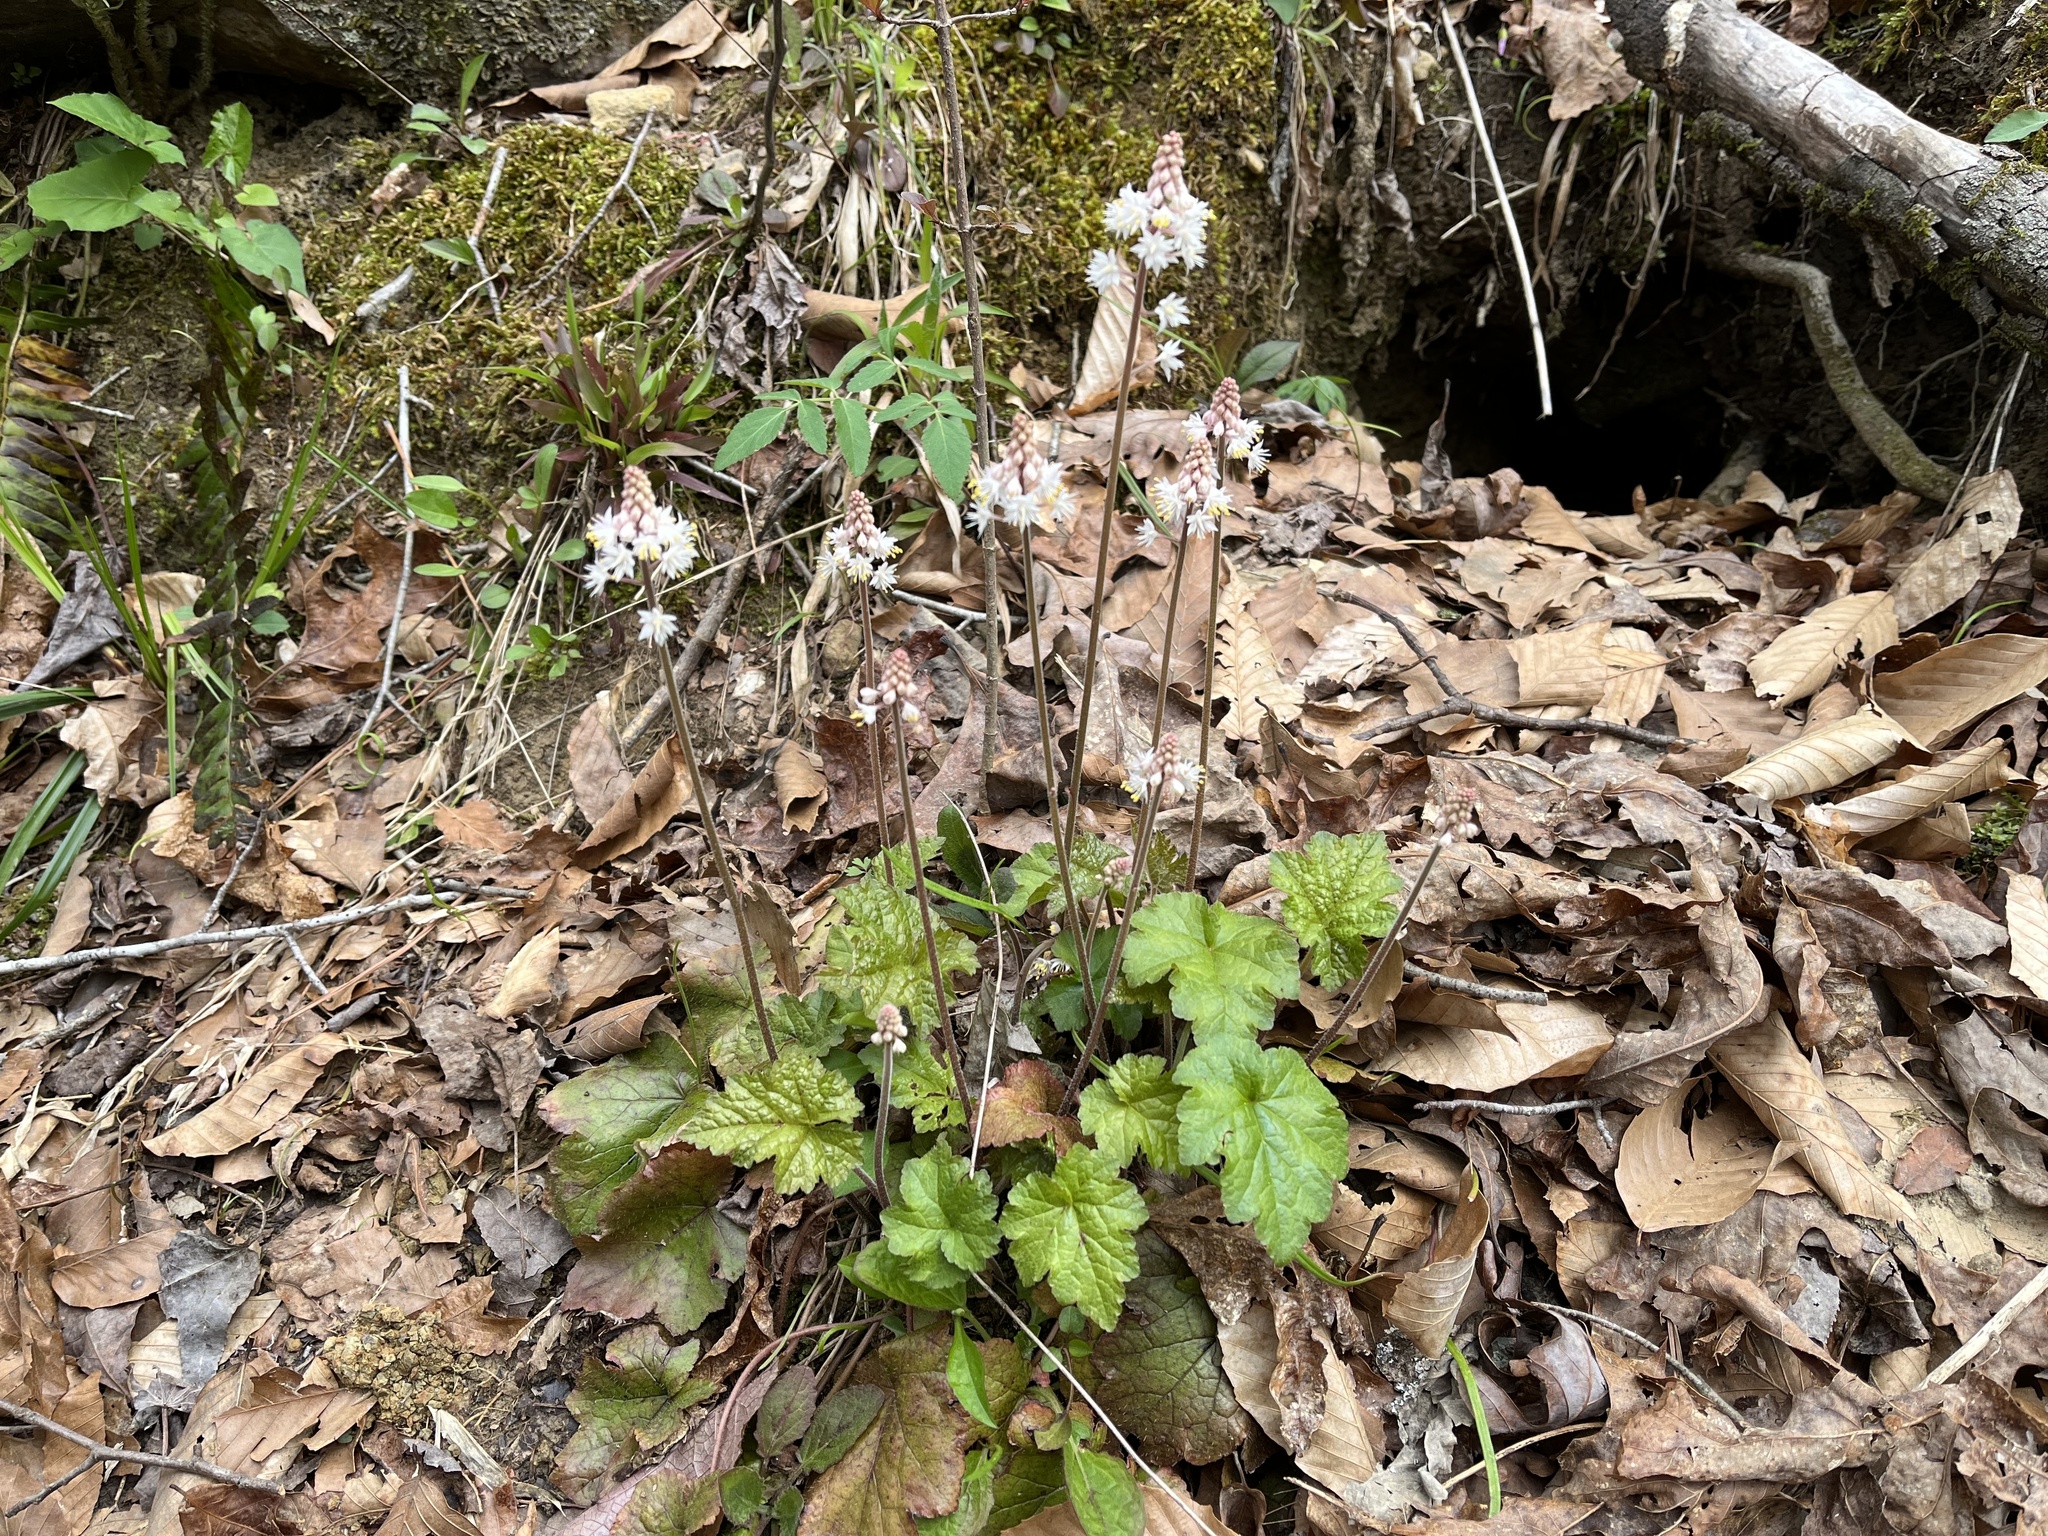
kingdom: Plantae
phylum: Tracheophyta
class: Magnoliopsida
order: Saxifragales
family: Saxifragaceae
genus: Tiarella
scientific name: Tiarella wherryi
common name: Tufted foamflower
